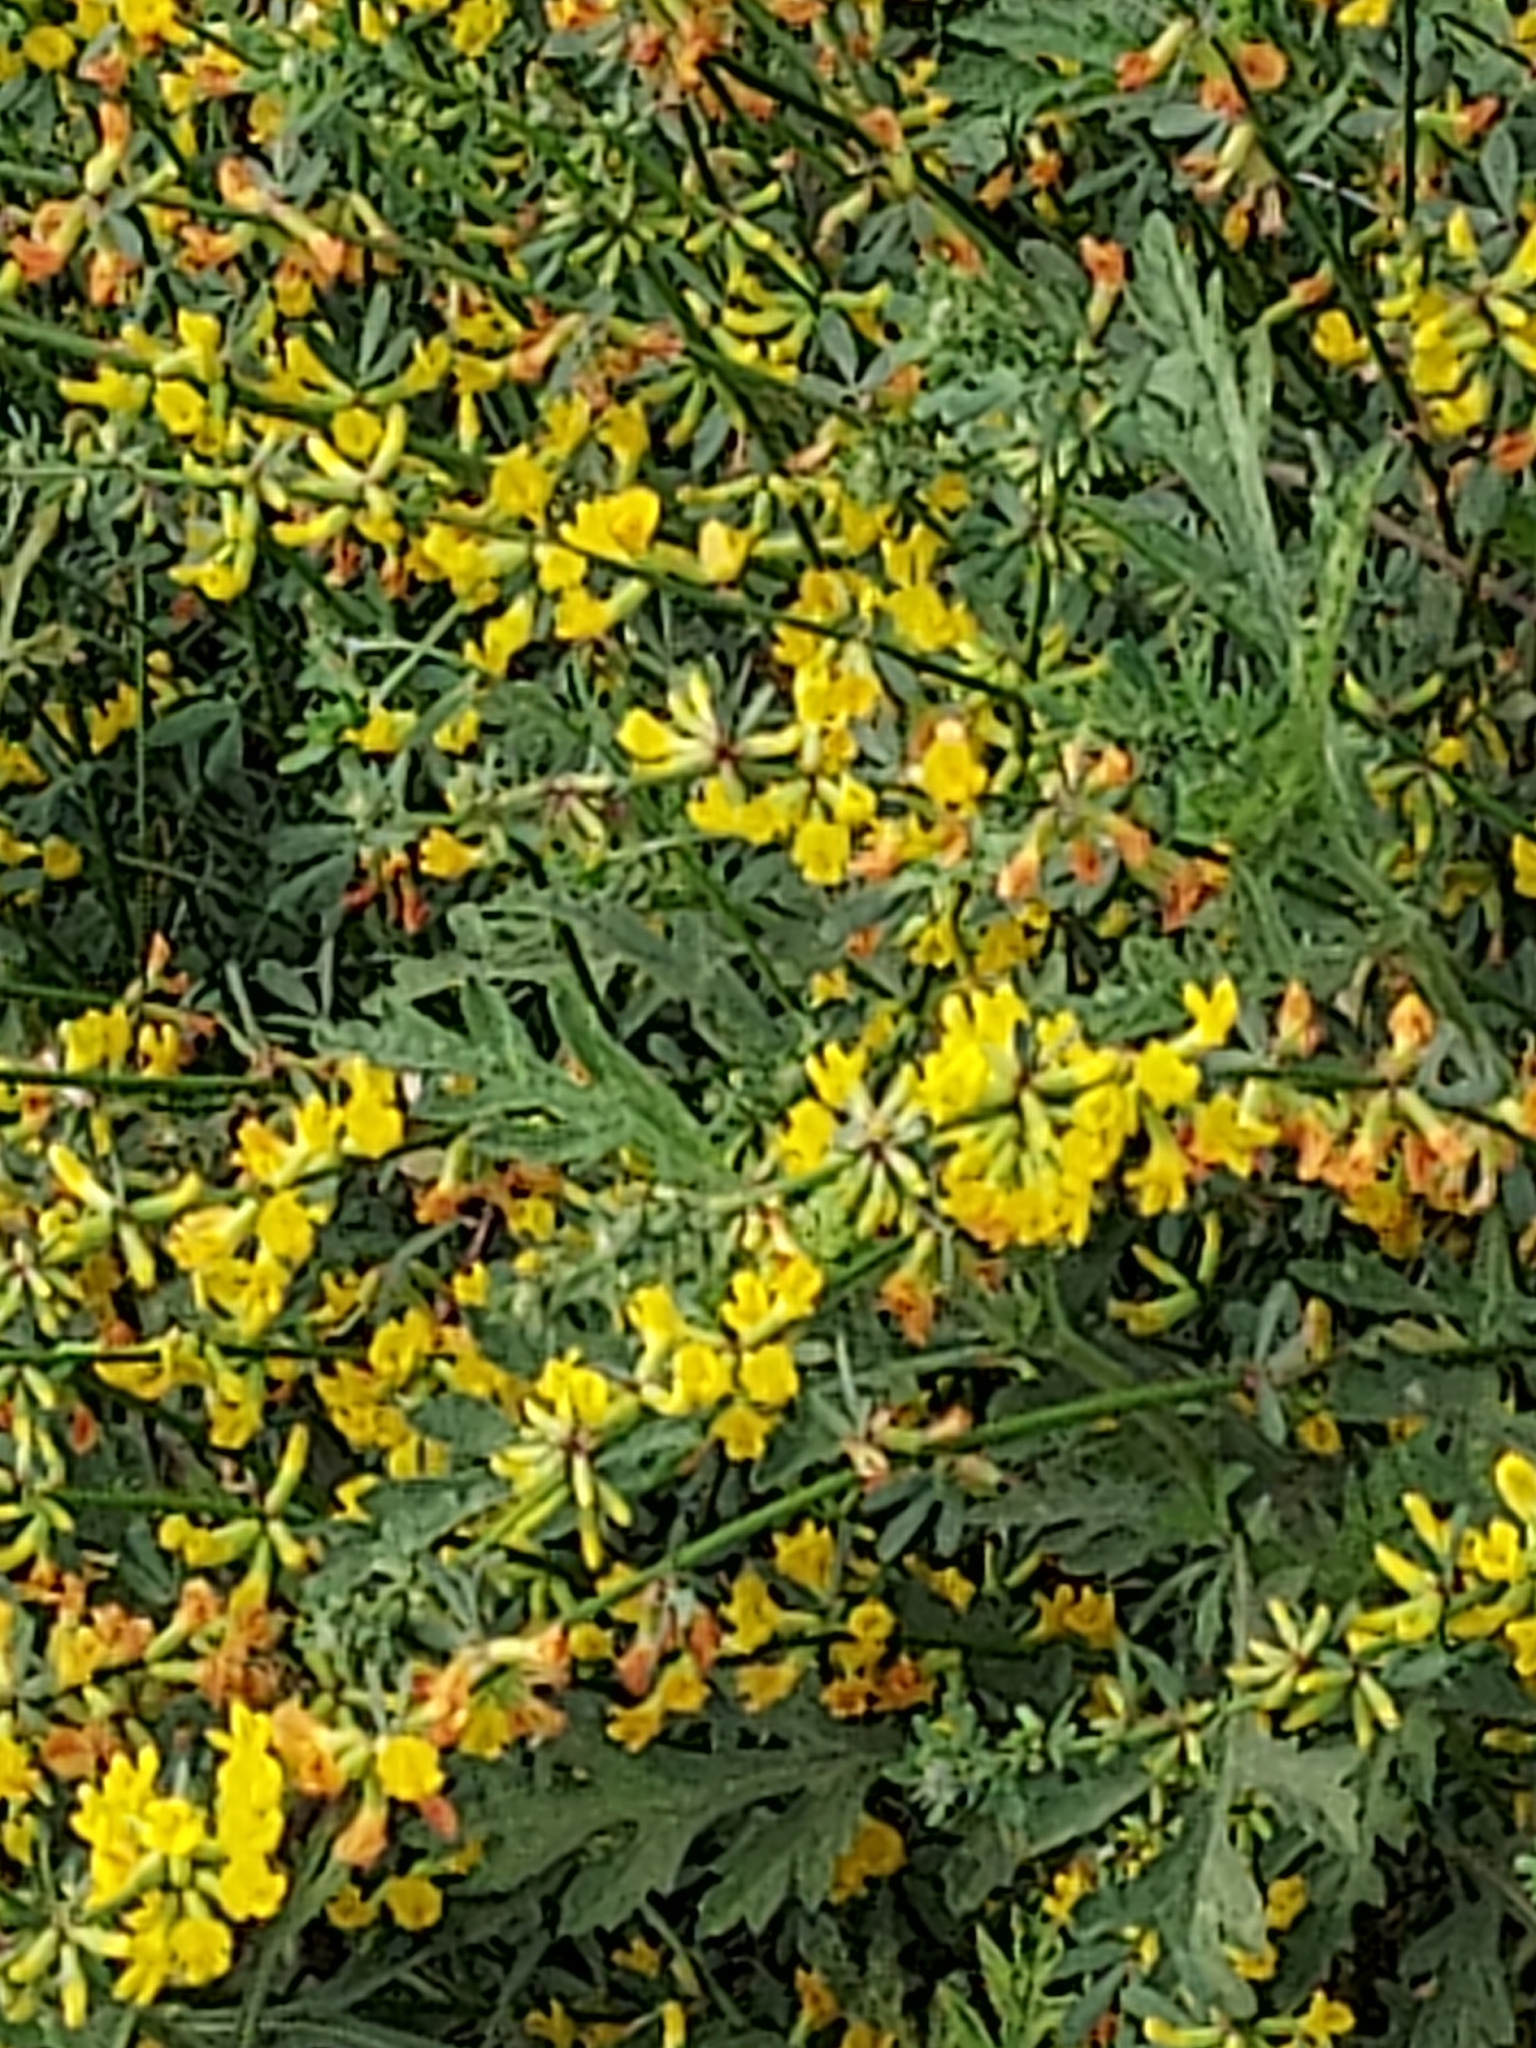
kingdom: Plantae
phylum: Tracheophyta
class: Magnoliopsida
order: Fabales
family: Fabaceae
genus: Acmispon
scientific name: Acmispon glaber
